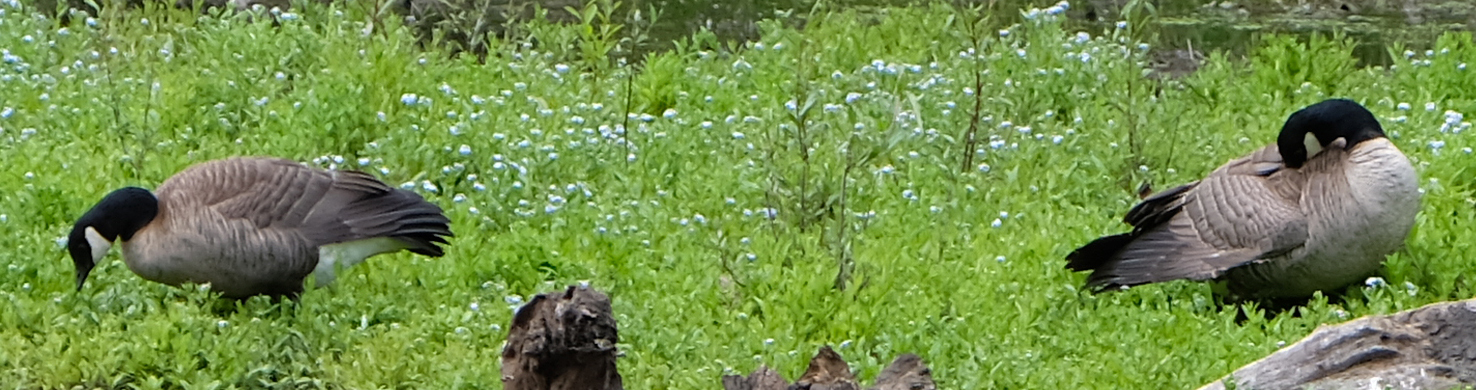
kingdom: Animalia
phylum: Chordata
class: Aves
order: Anseriformes
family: Anatidae
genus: Branta
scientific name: Branta canadensis
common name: Canada goose
